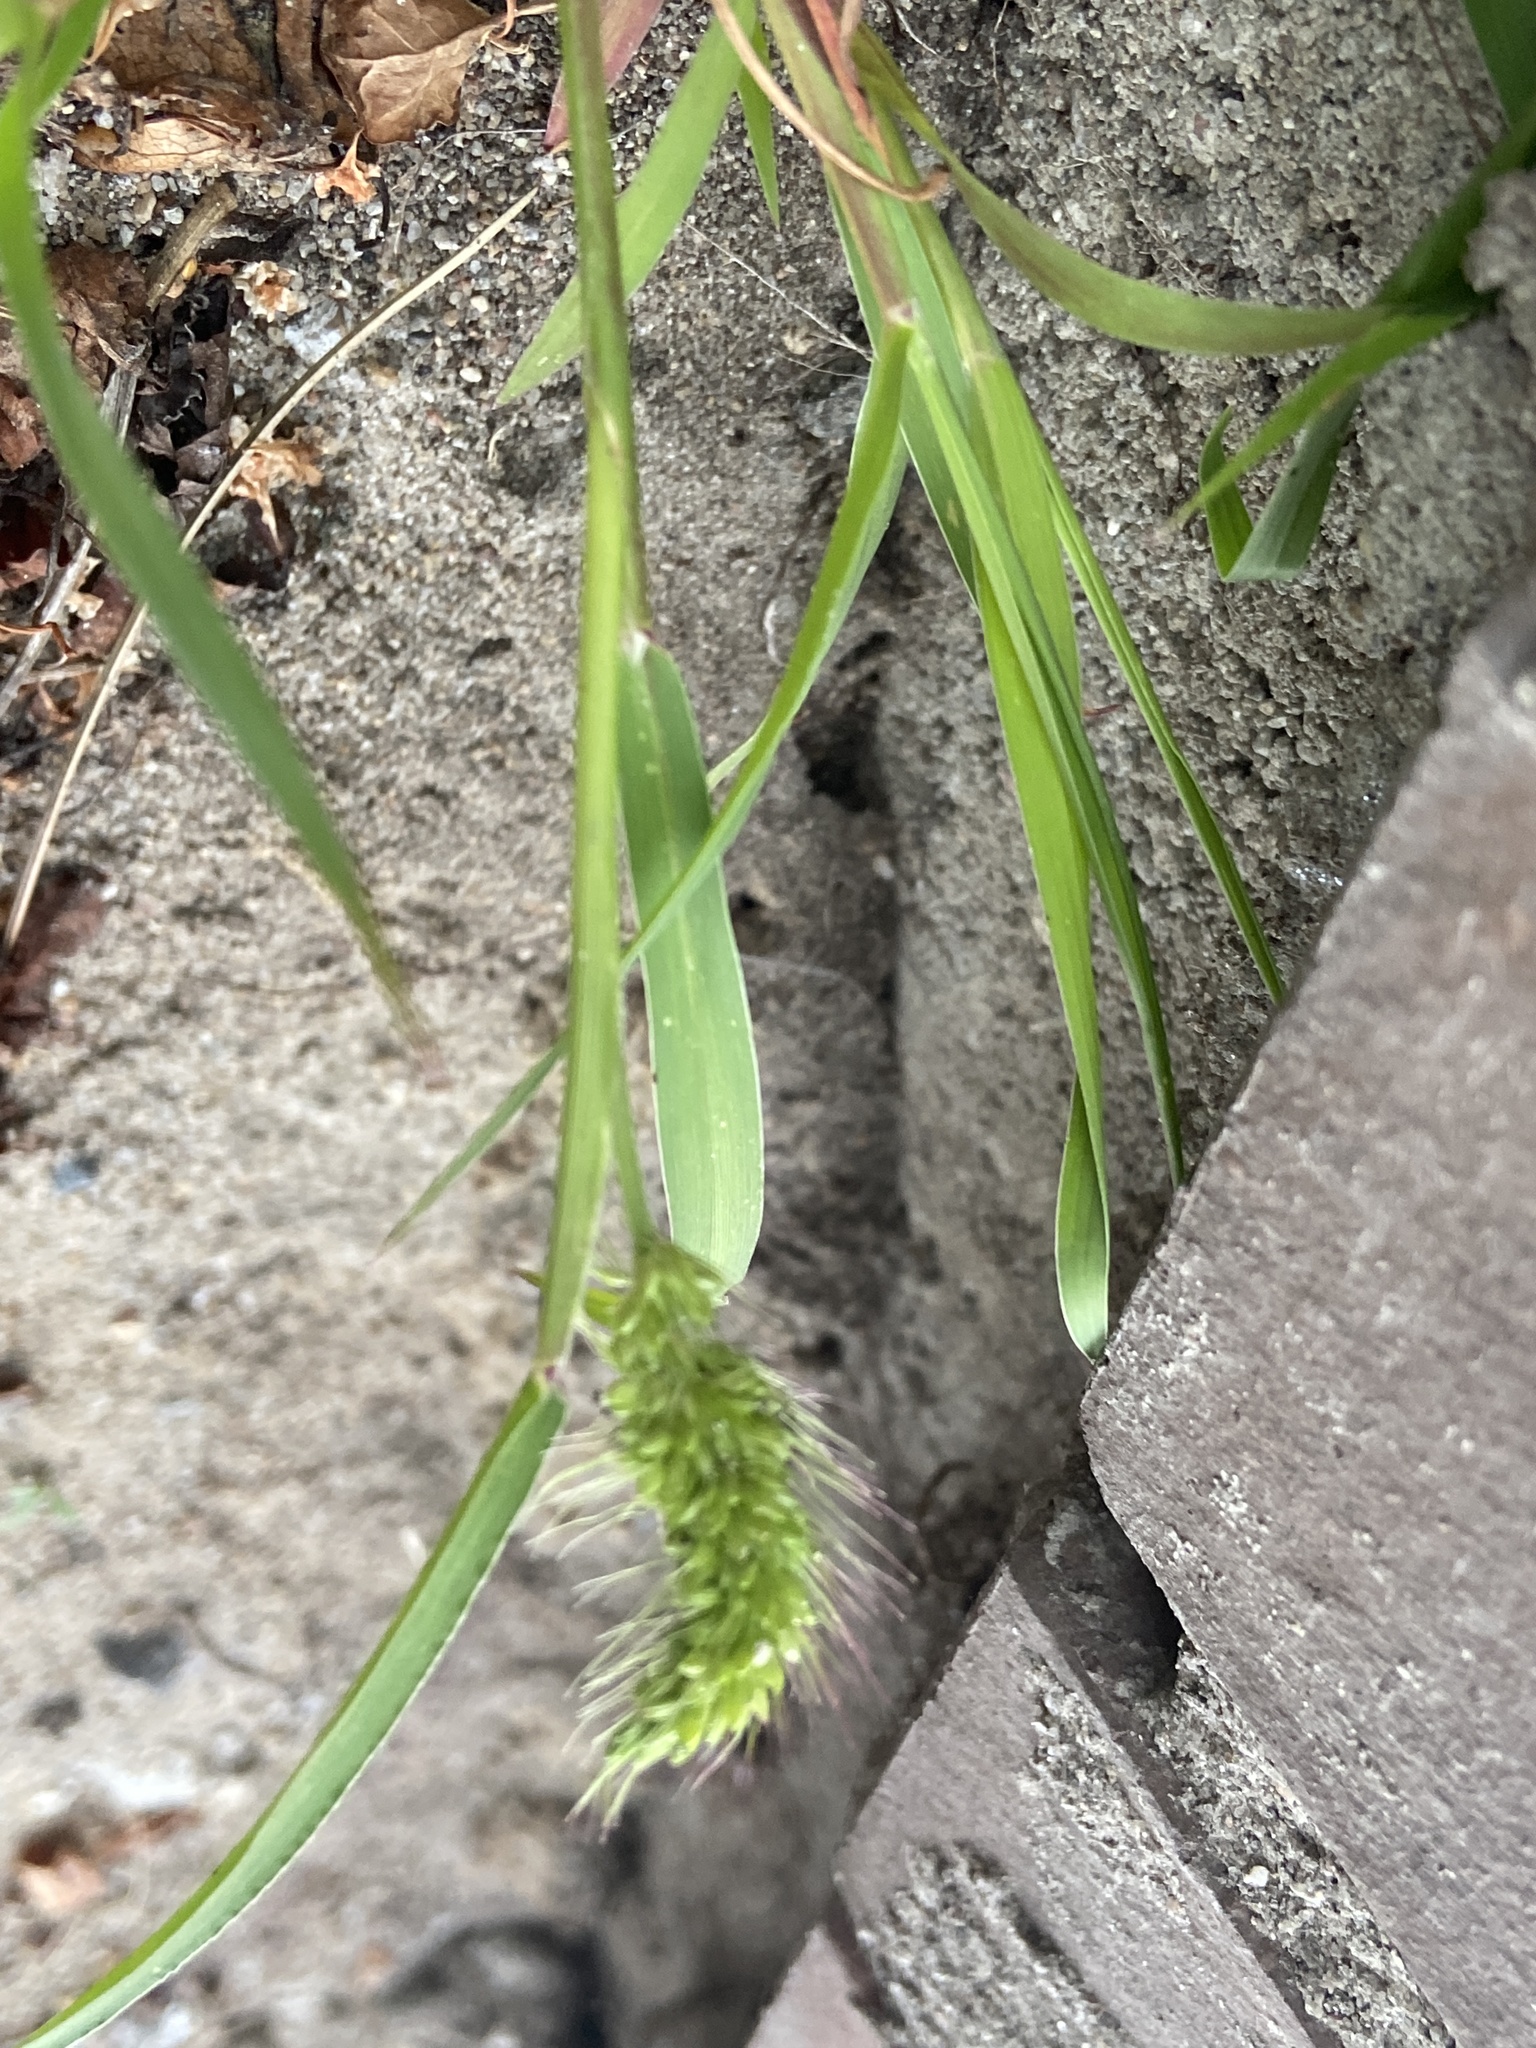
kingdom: Plantae
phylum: Tracheophyta
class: Liliopsida
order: Poales
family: Poaceae
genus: Setaria
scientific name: Setaria viridis
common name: Green bristlegrass
